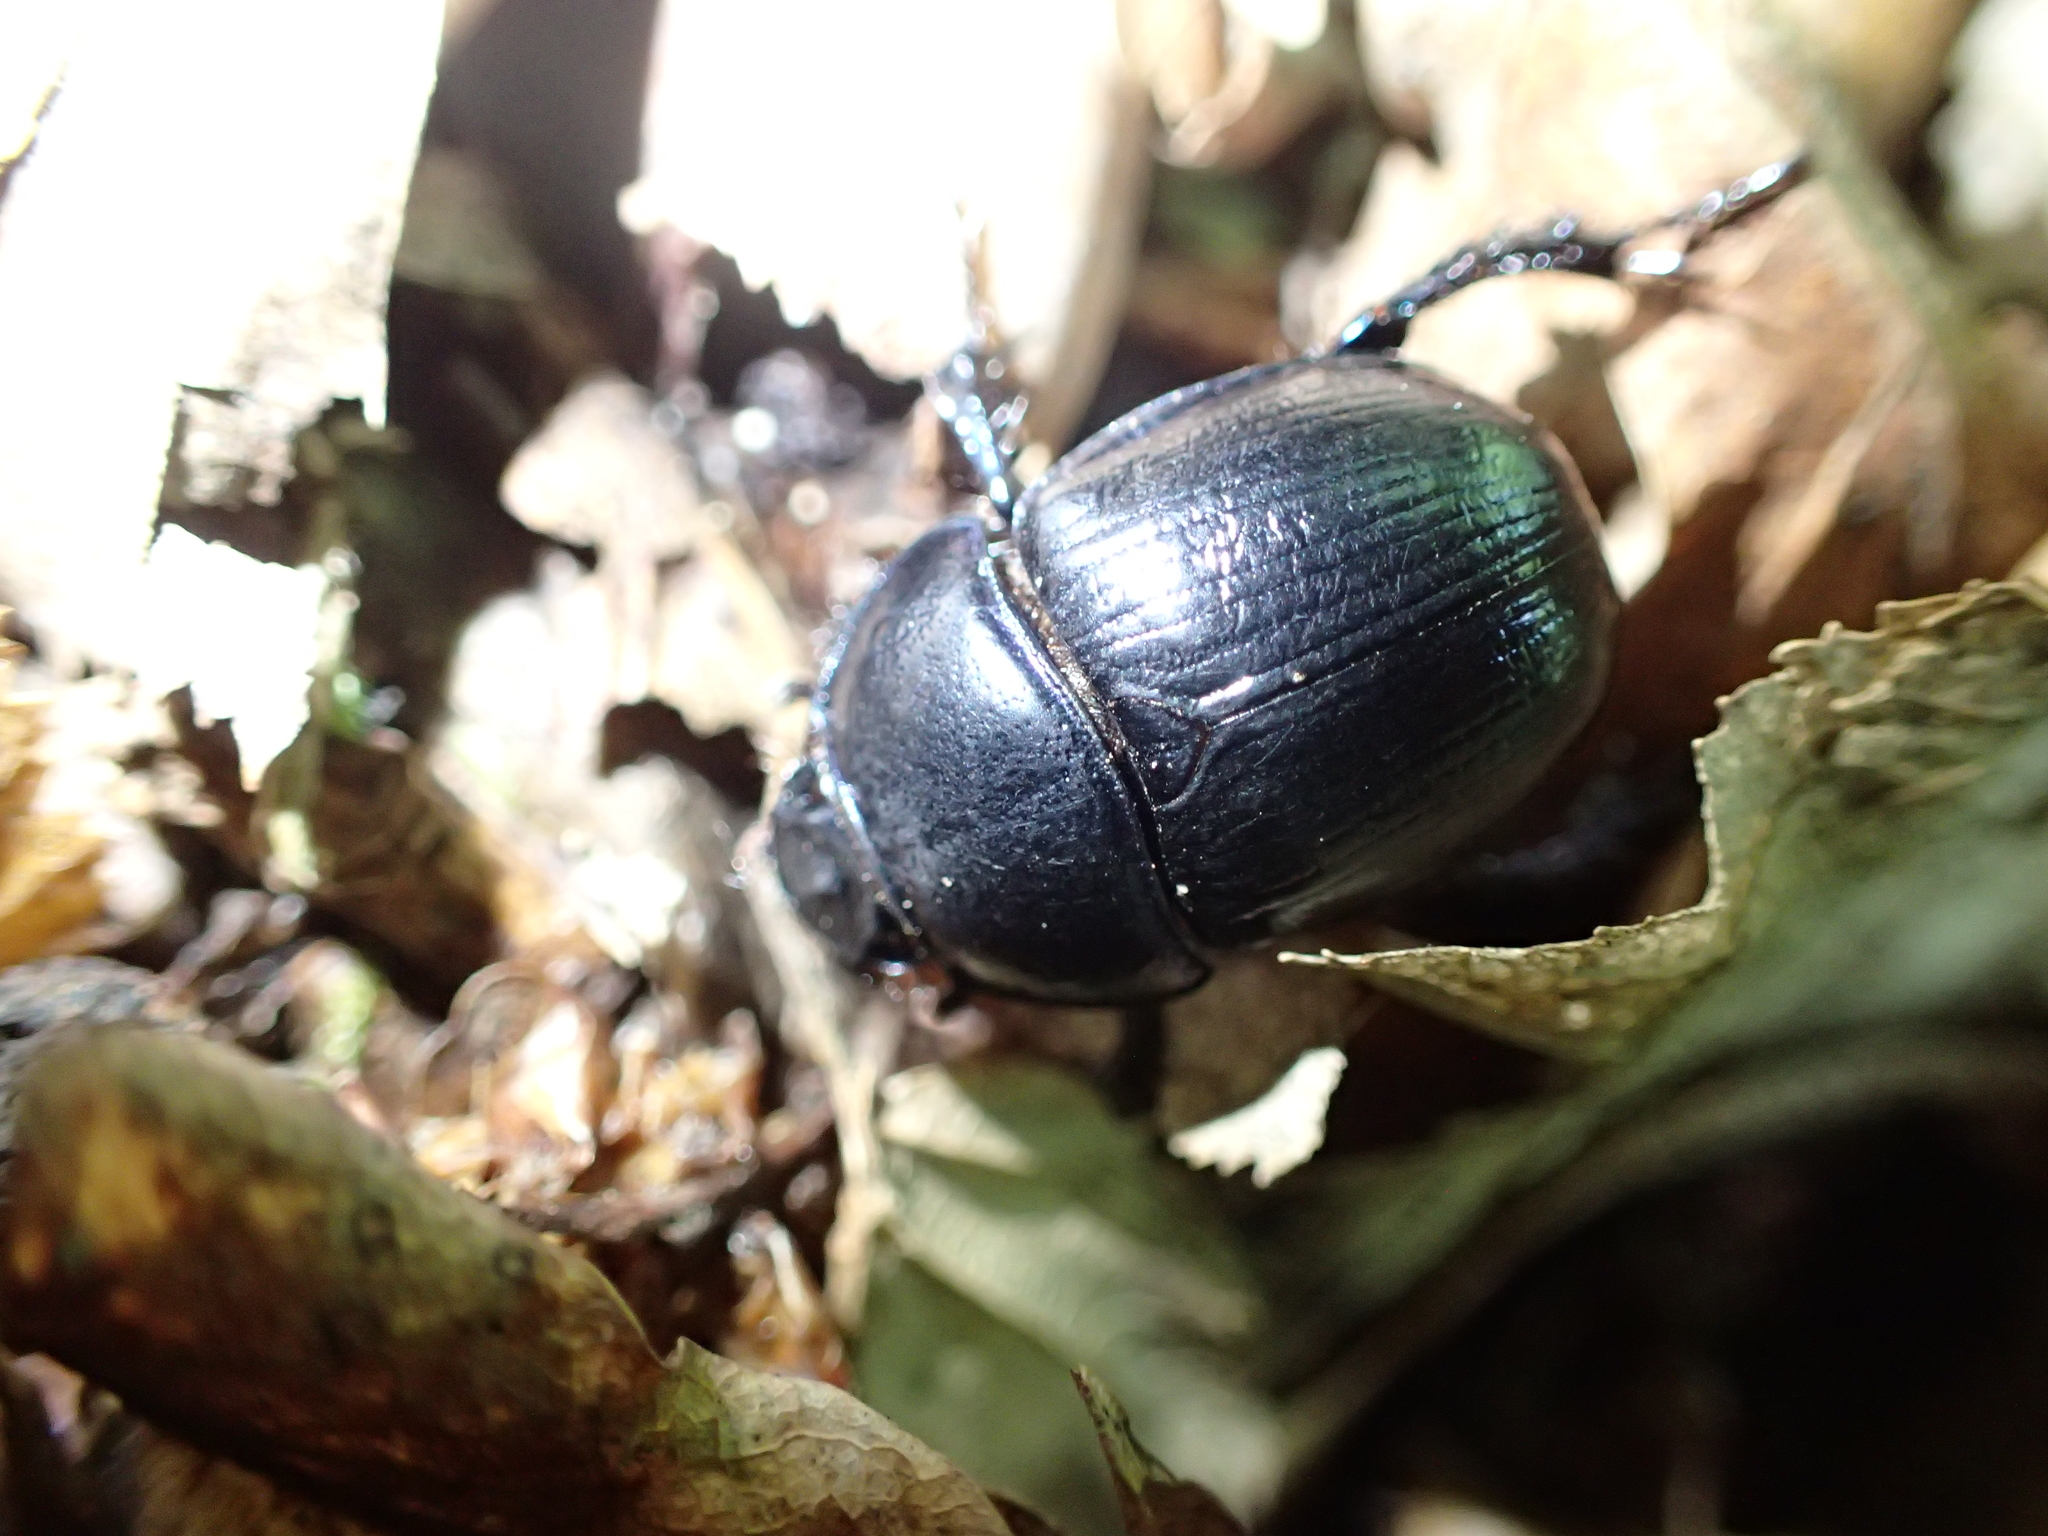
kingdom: Animalia
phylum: Arthropoda
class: Insecta
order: Coleoptera
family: Geotrupidae
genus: Anoplotrupes
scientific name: Anoplotrupes stercorosus
